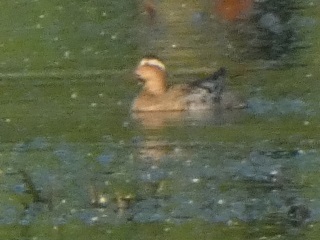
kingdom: Animalia
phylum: Chordata
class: Aves
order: Anseriformes
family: Anatidae
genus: Spatula
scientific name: Spatula querquedula
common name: Garganey
